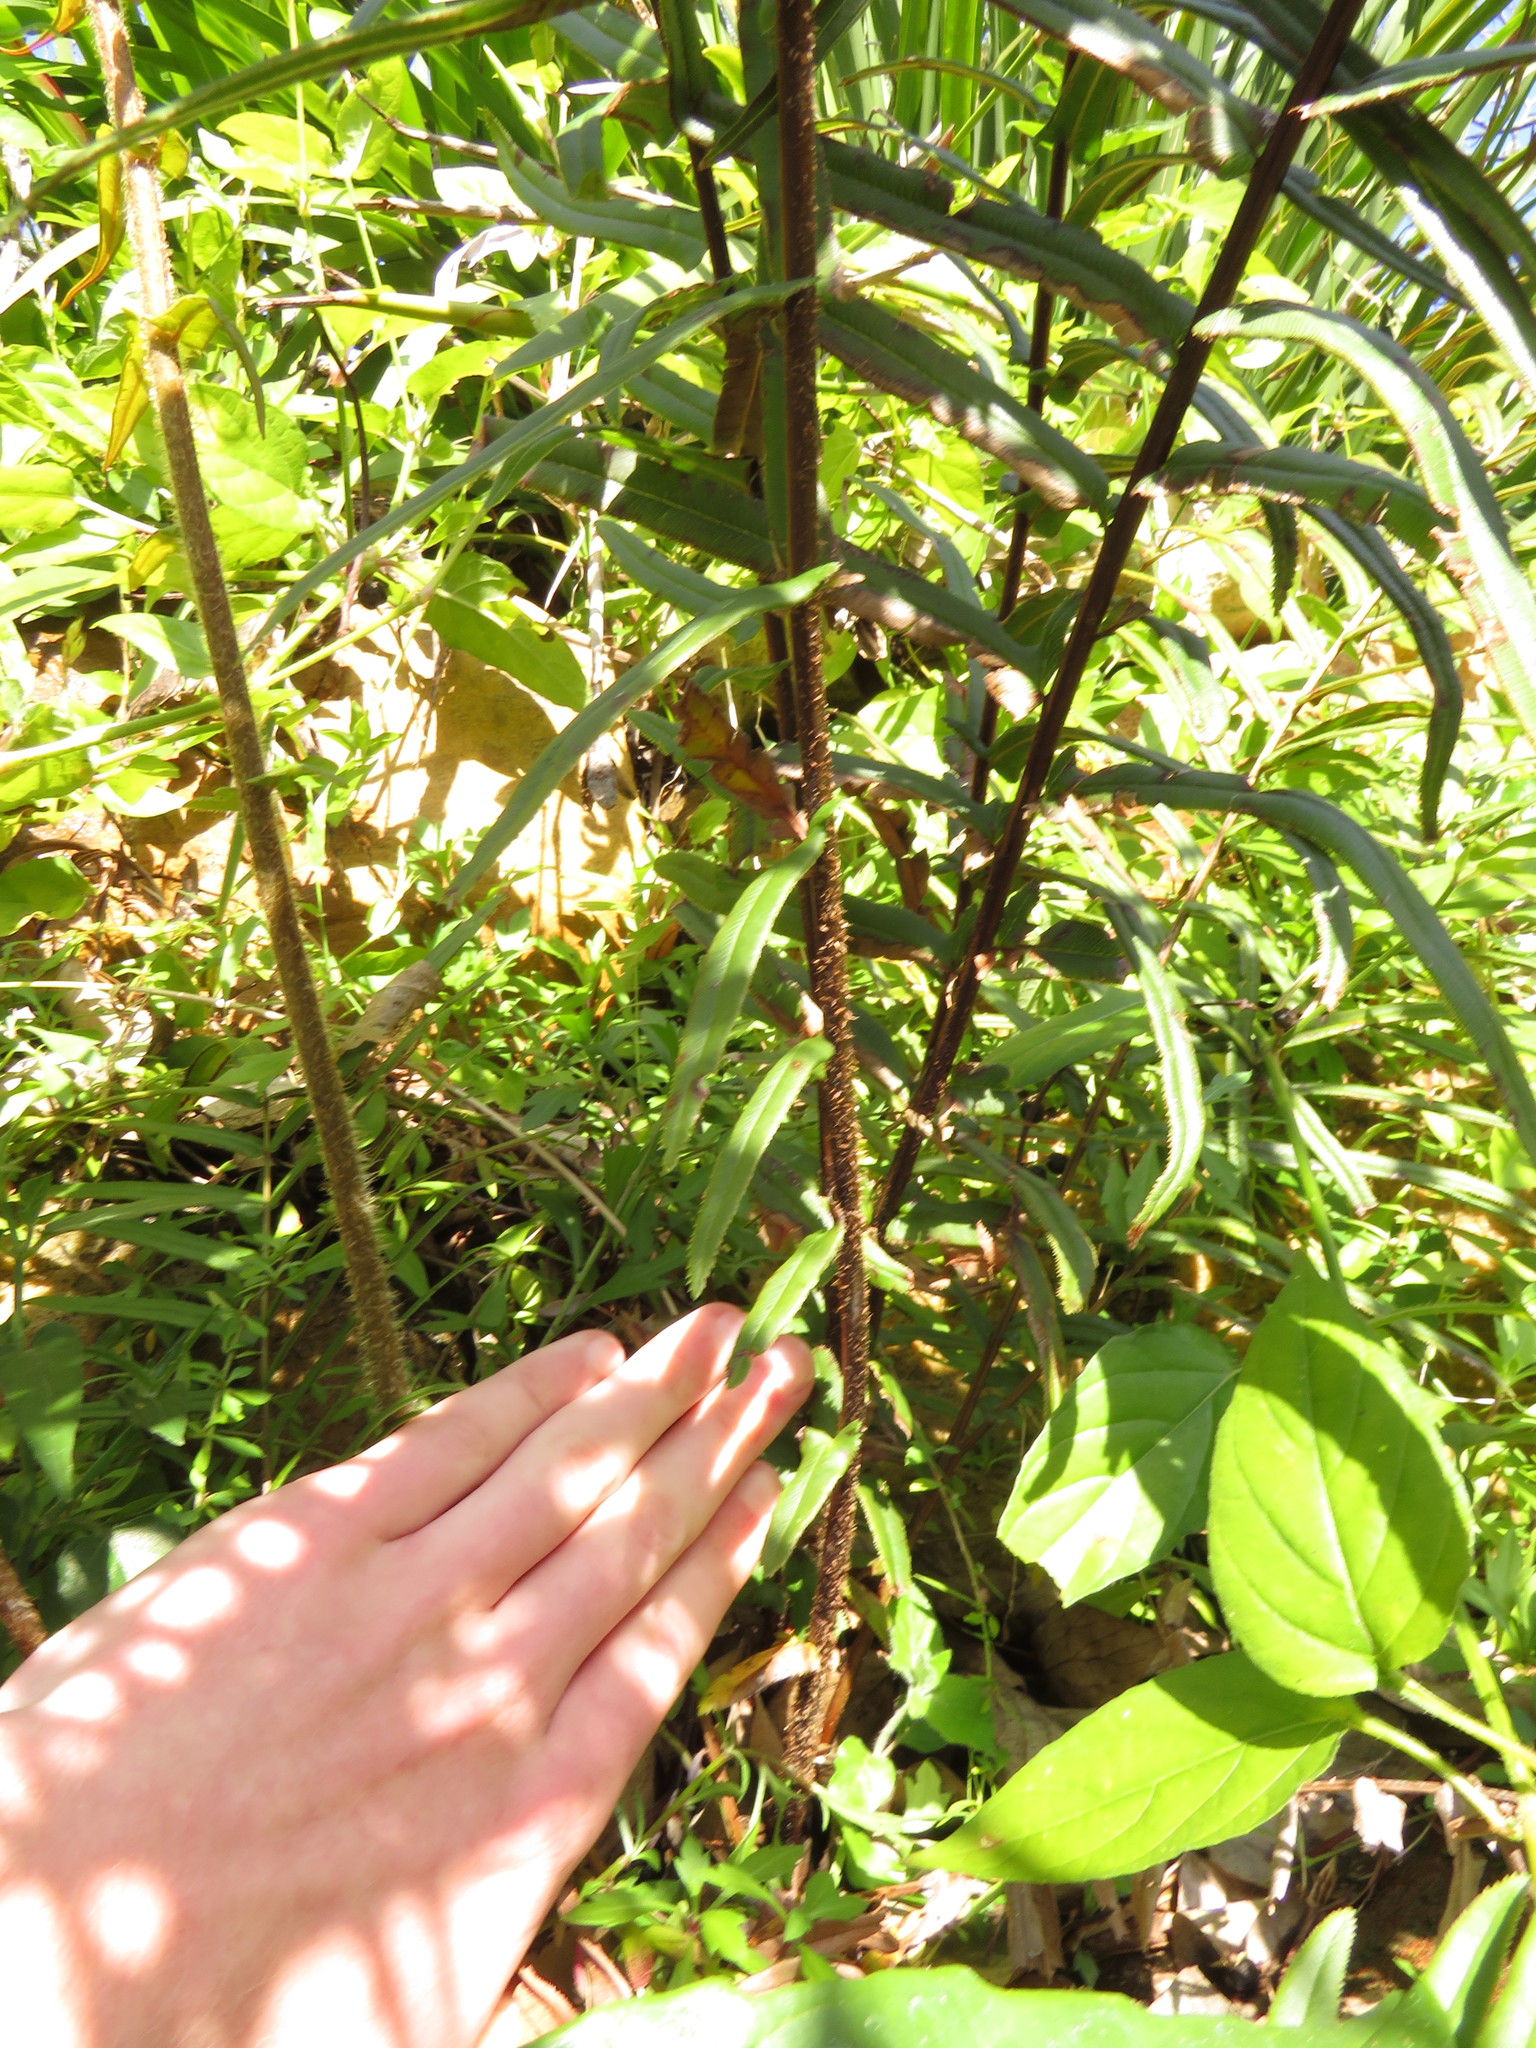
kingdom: Plantae
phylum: Tracheophyta
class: Polypodiopsida
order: Polypodiales
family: Pteridaceae
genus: Pteris
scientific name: Pteris vittata
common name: Ladder brake
